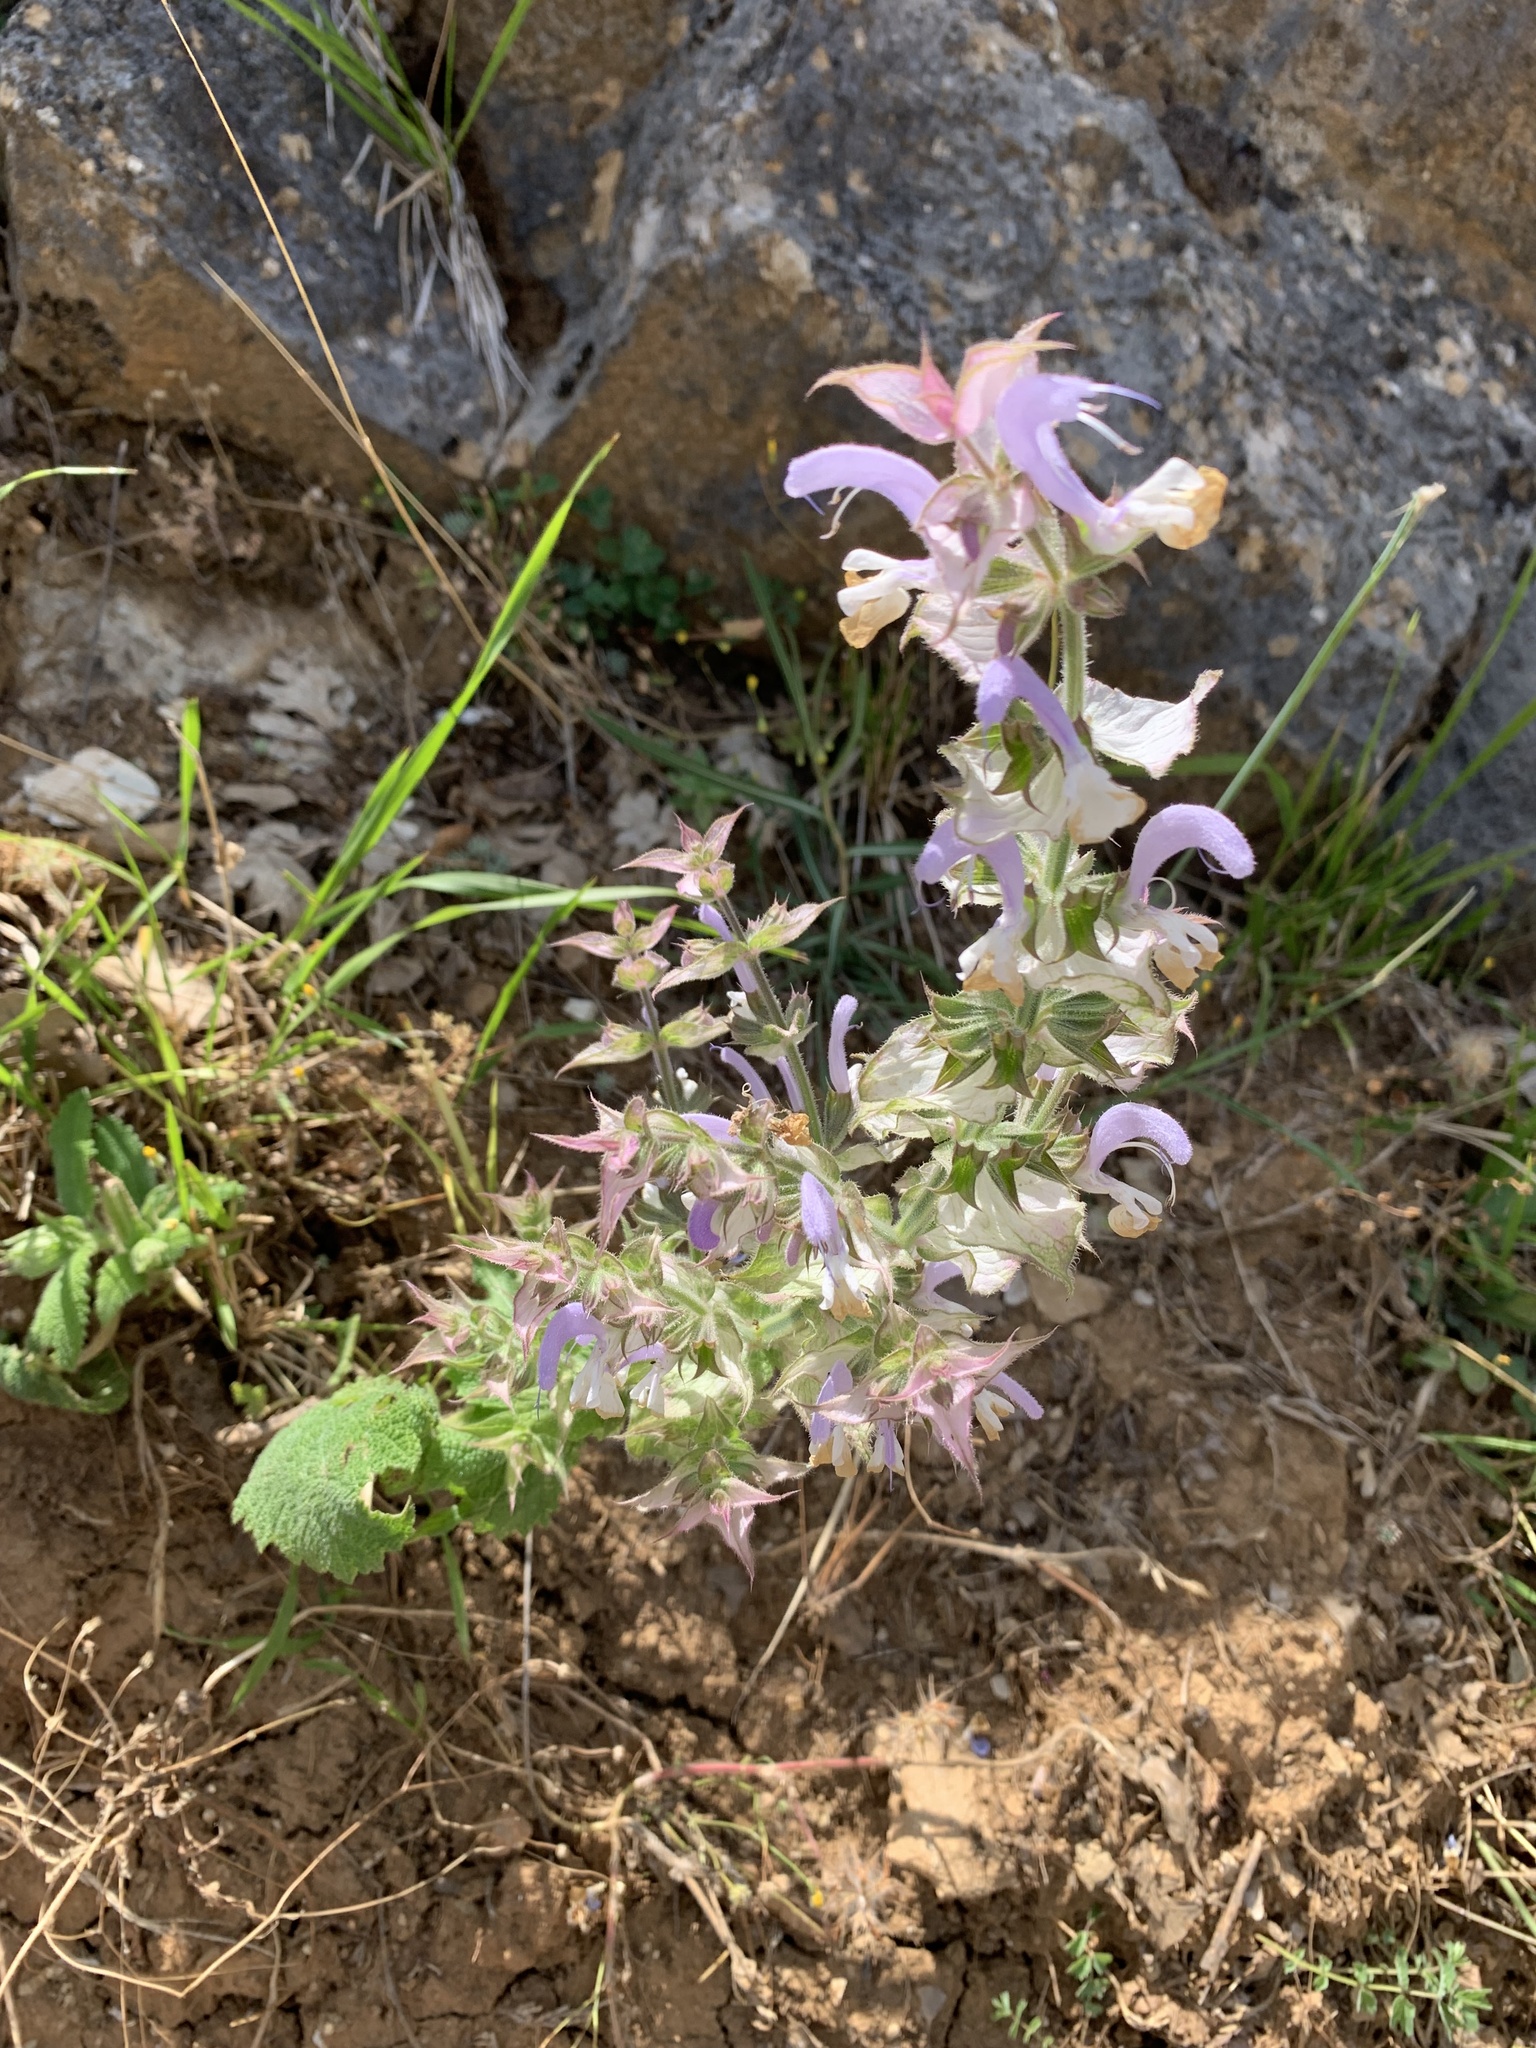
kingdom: Plantae
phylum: Tracheophyta
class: Magnoliopsida
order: Lamiales
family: Lamiaceae
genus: Salvia
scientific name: Salvia sclarea
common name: Clary
